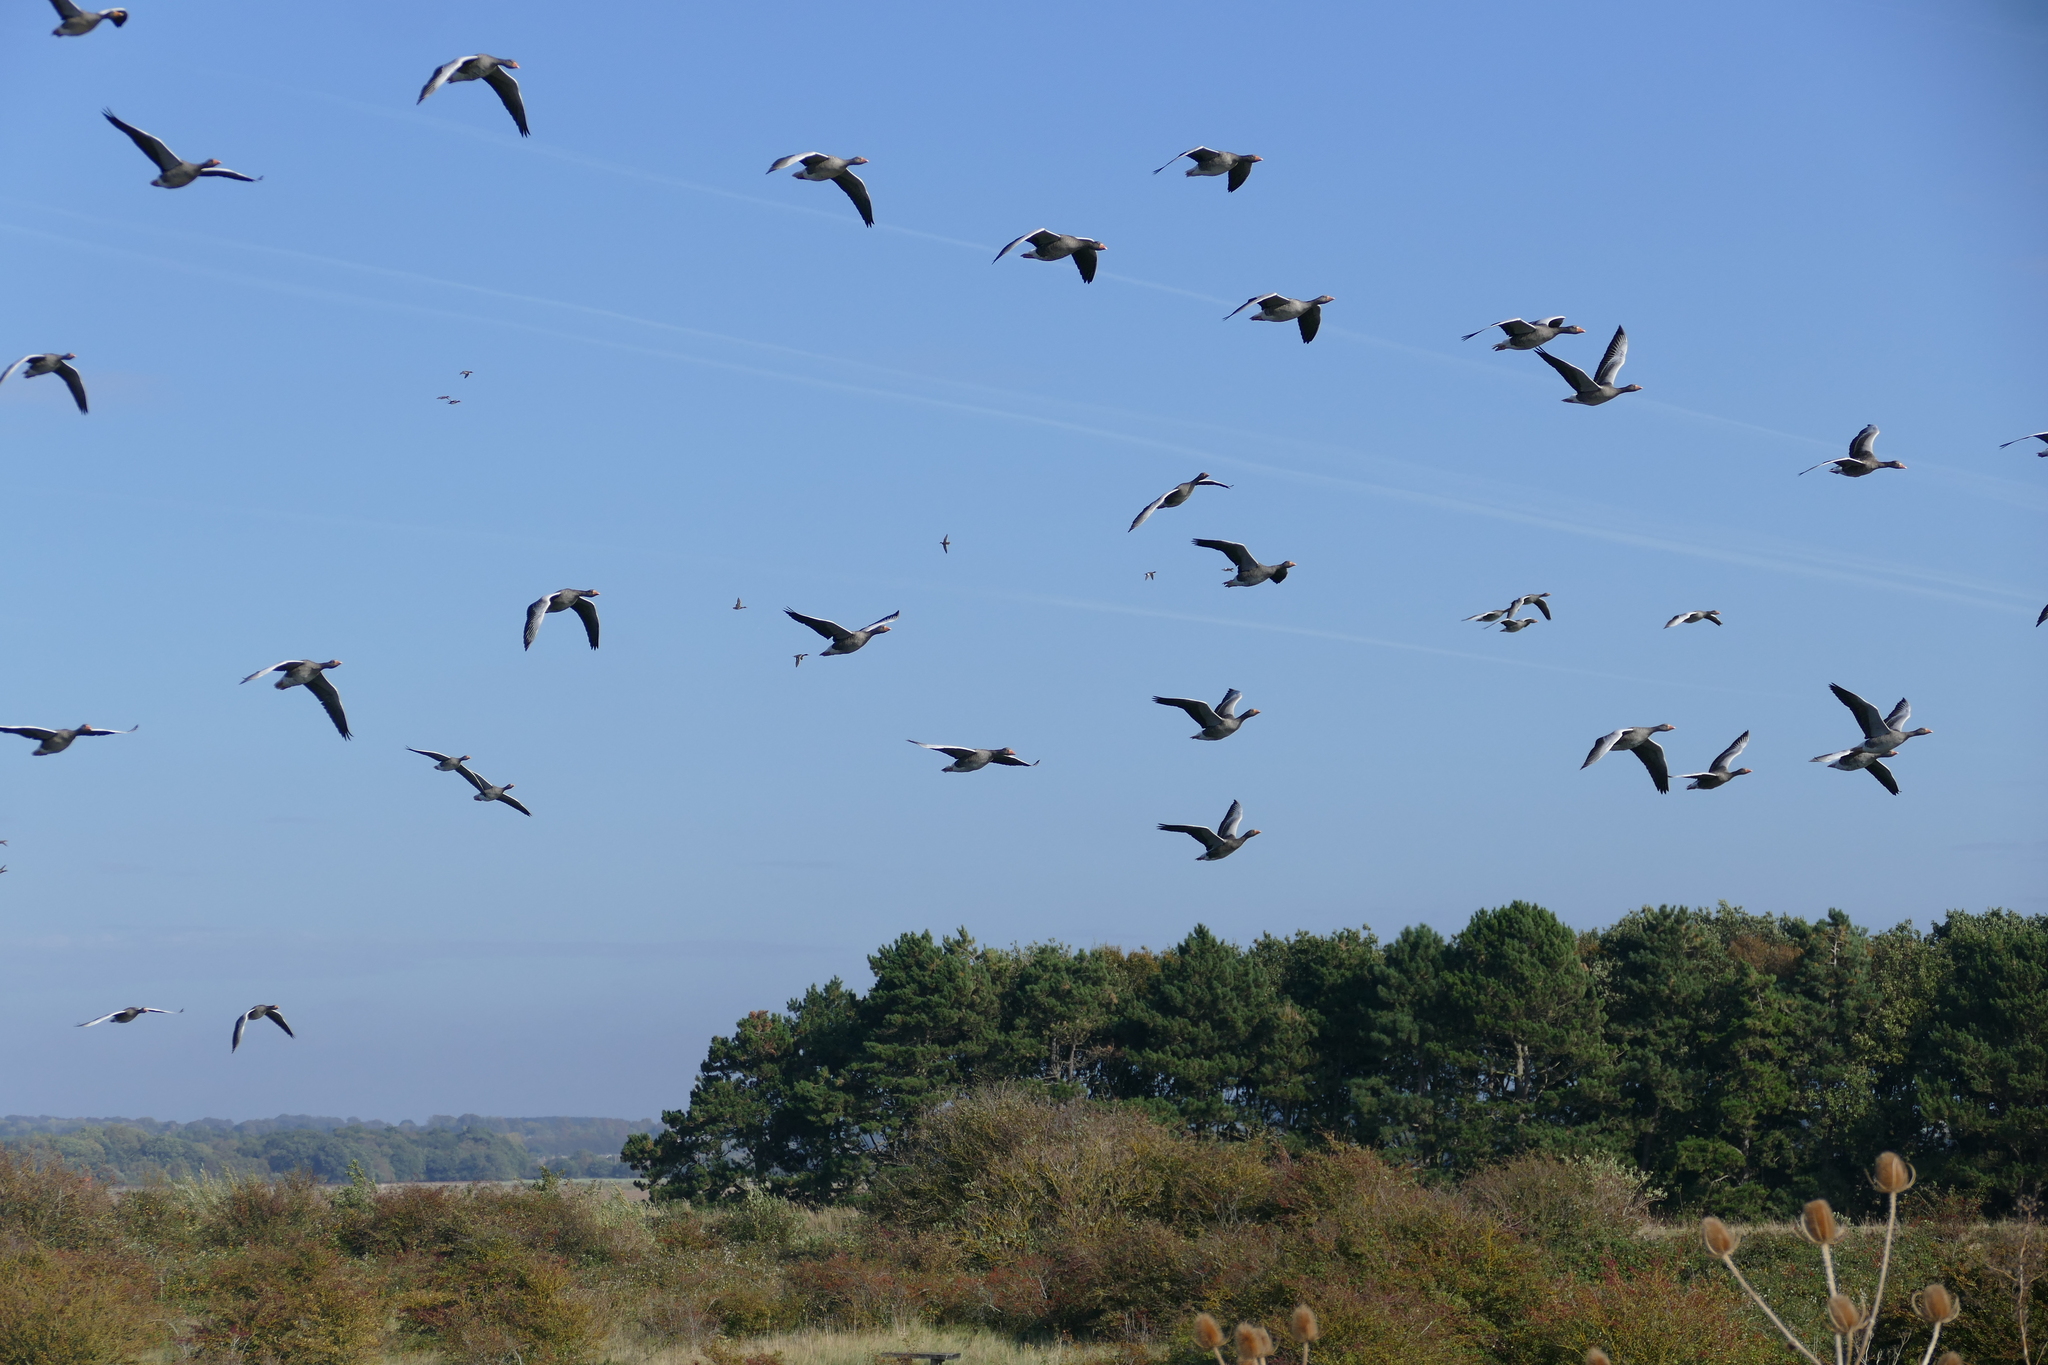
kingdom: Animalia
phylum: Chordata
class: Aves
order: Anseriformes
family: Anatidae
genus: Anser
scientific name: Anser anser
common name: Greylag goose
